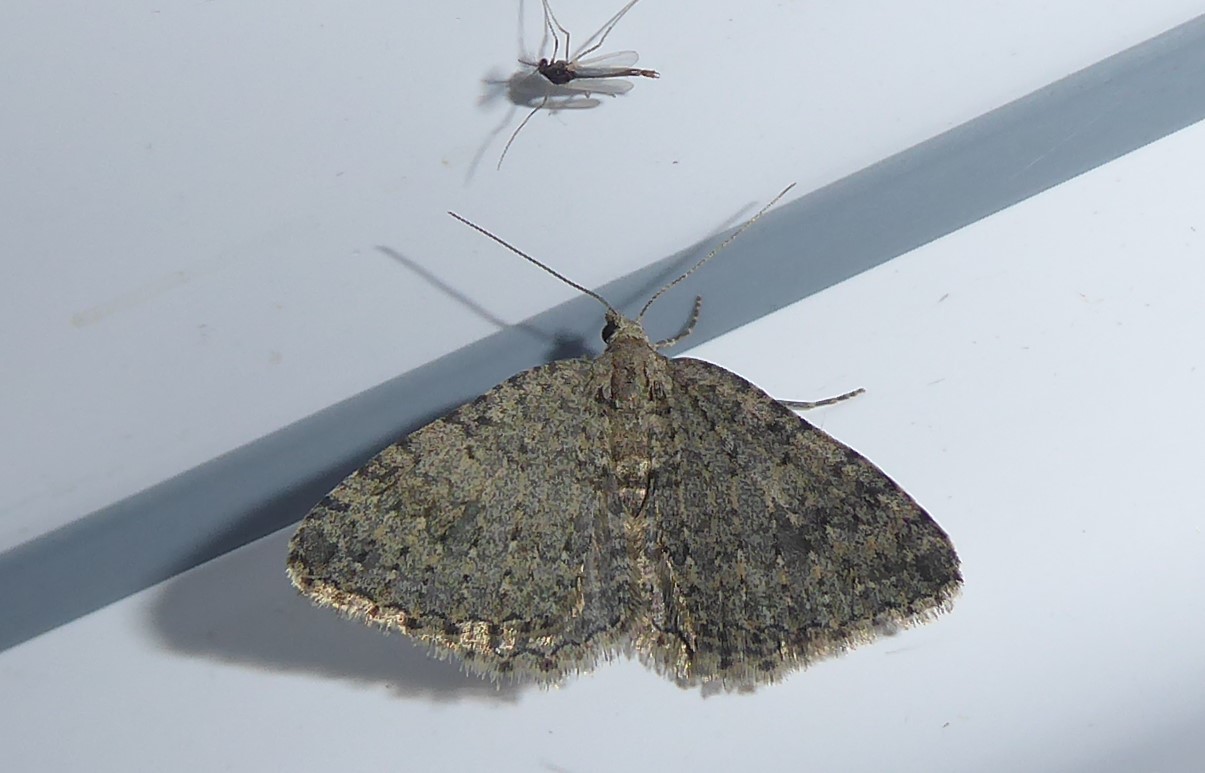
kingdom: Animalia
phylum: Arthropoda
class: Insecta
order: Lepidoptera
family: Geometridae
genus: Helastia
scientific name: Helastia corcularia
